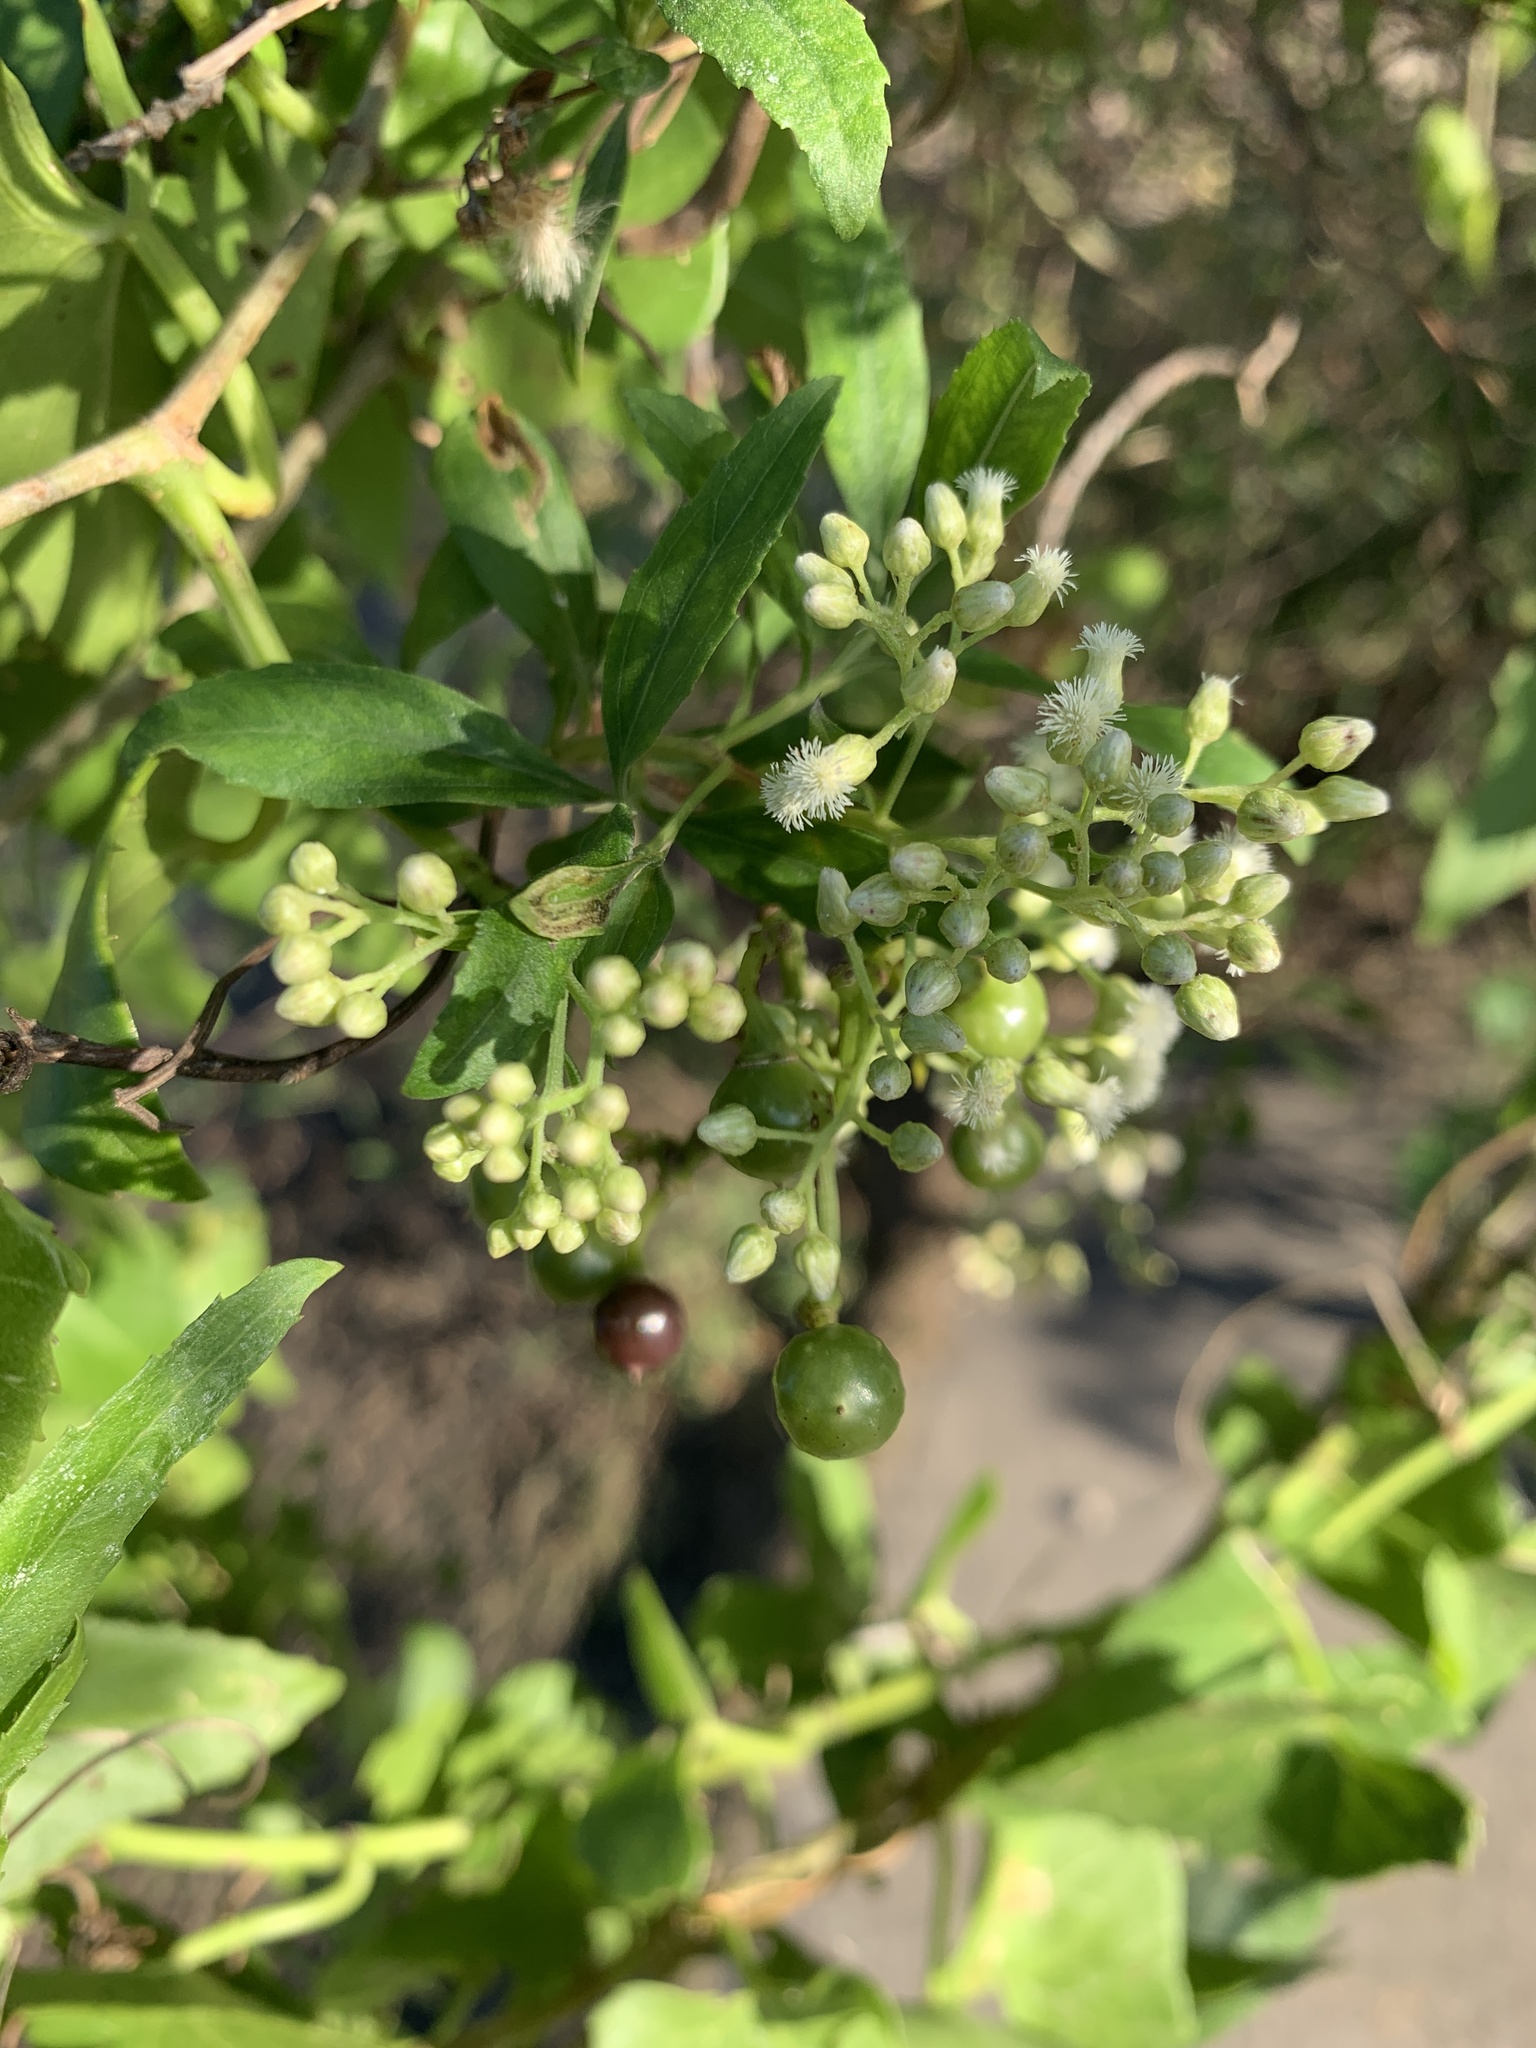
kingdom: Plantae
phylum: Tracheophyta
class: Magnoliopsida
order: Vitales
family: Vitaceae
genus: Cissus
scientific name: Cissus verticillata
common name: Princess vine
